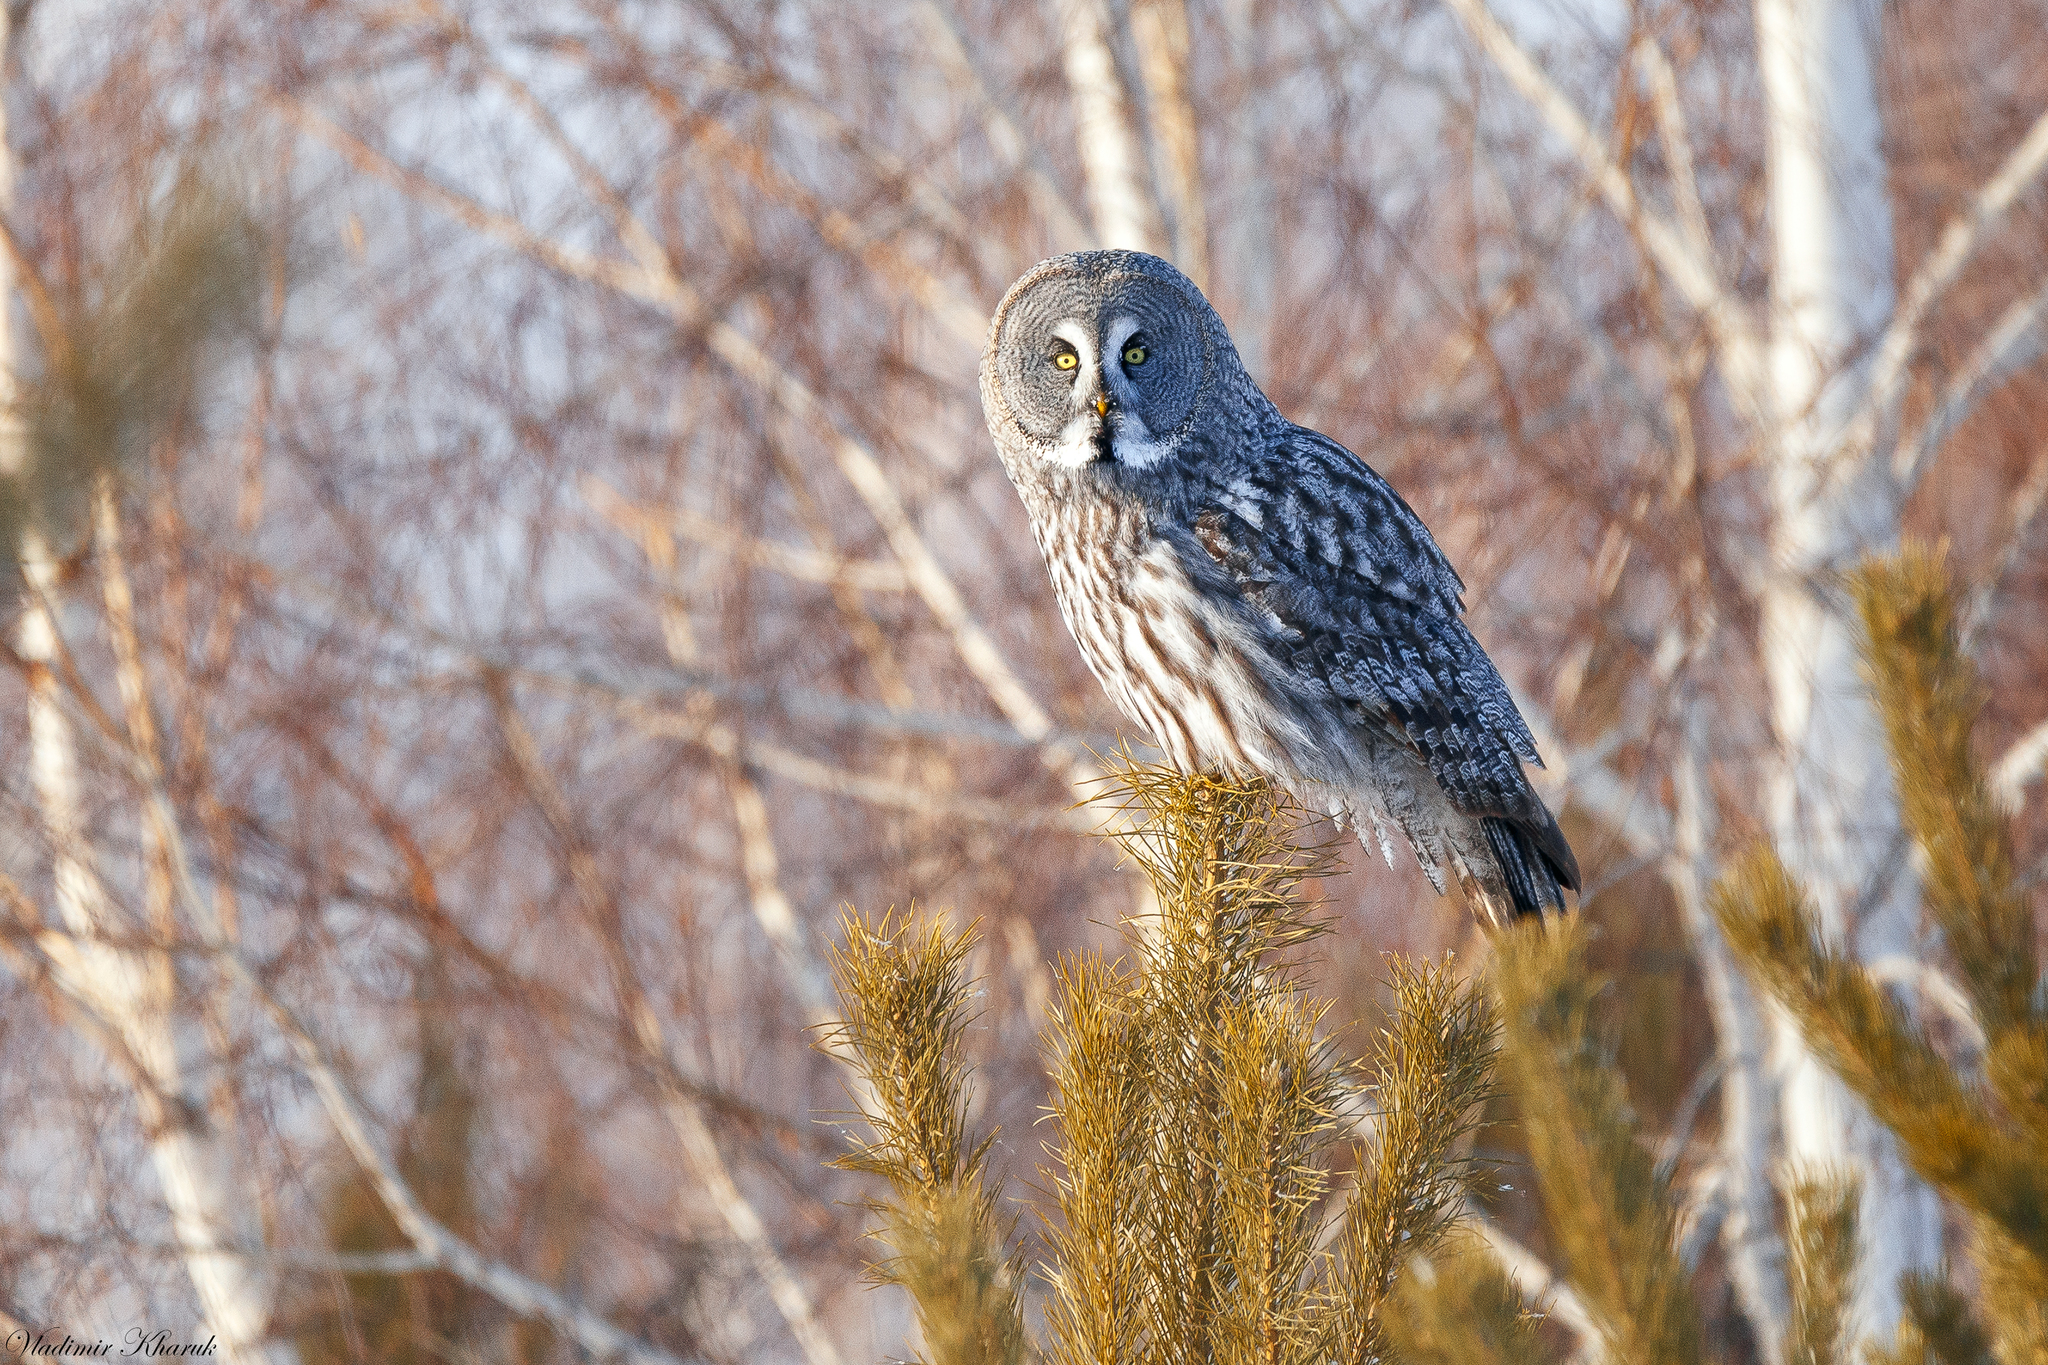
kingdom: Animalia
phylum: Chordata
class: Aves
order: Strigiformes
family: Strigidae
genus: Strix
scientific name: Strix nebulosa
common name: Great grey owl
